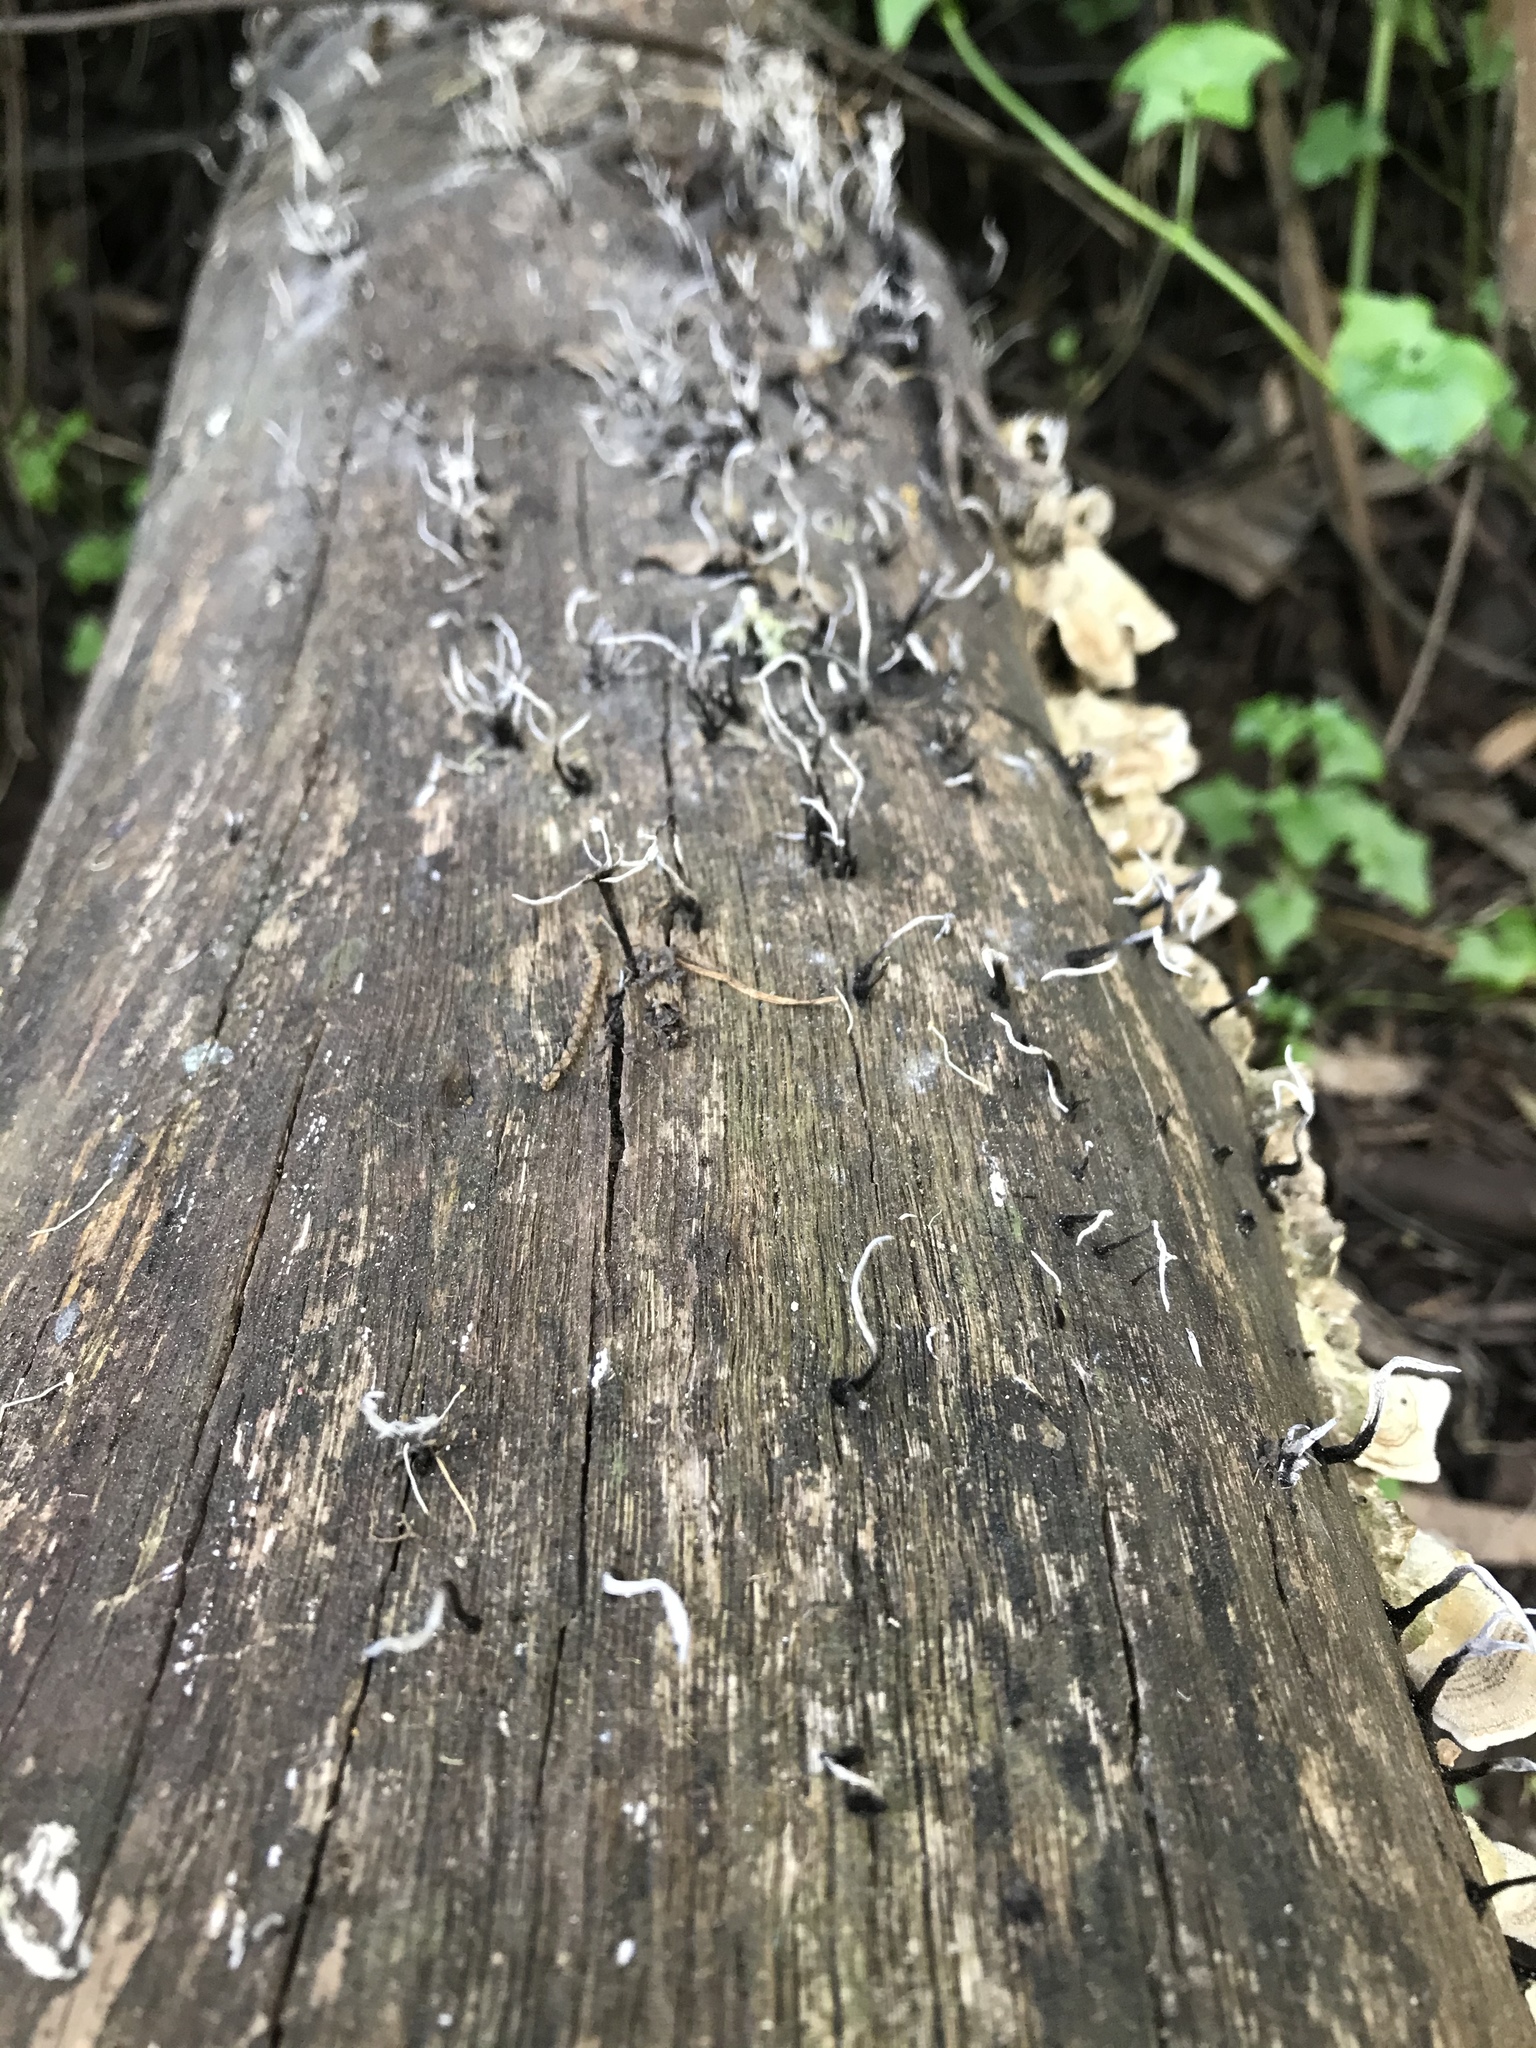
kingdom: Fungi
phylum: Ascomycota
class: Sordariomycetes
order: Xylariales
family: Xylariaceae
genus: Xylaria
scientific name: Xylaria hypoxylon
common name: Candle-snuff fungus
